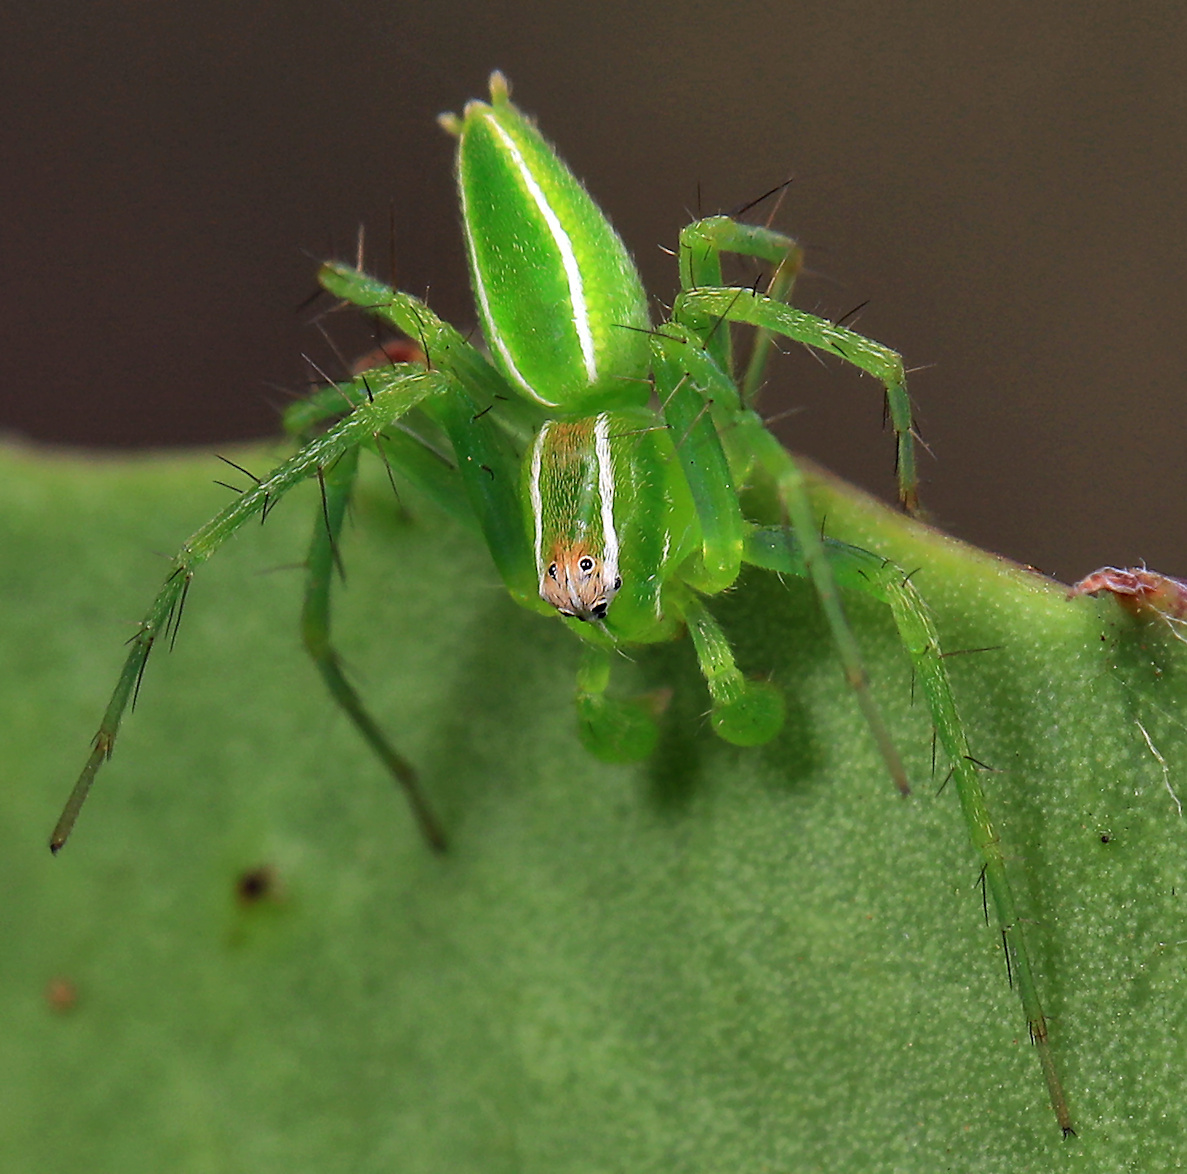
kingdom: Animalia
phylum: Arthropoda
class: Arachnida
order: Araneae
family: Oxyopidae
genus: Oxyopes
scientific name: Oxyopes
